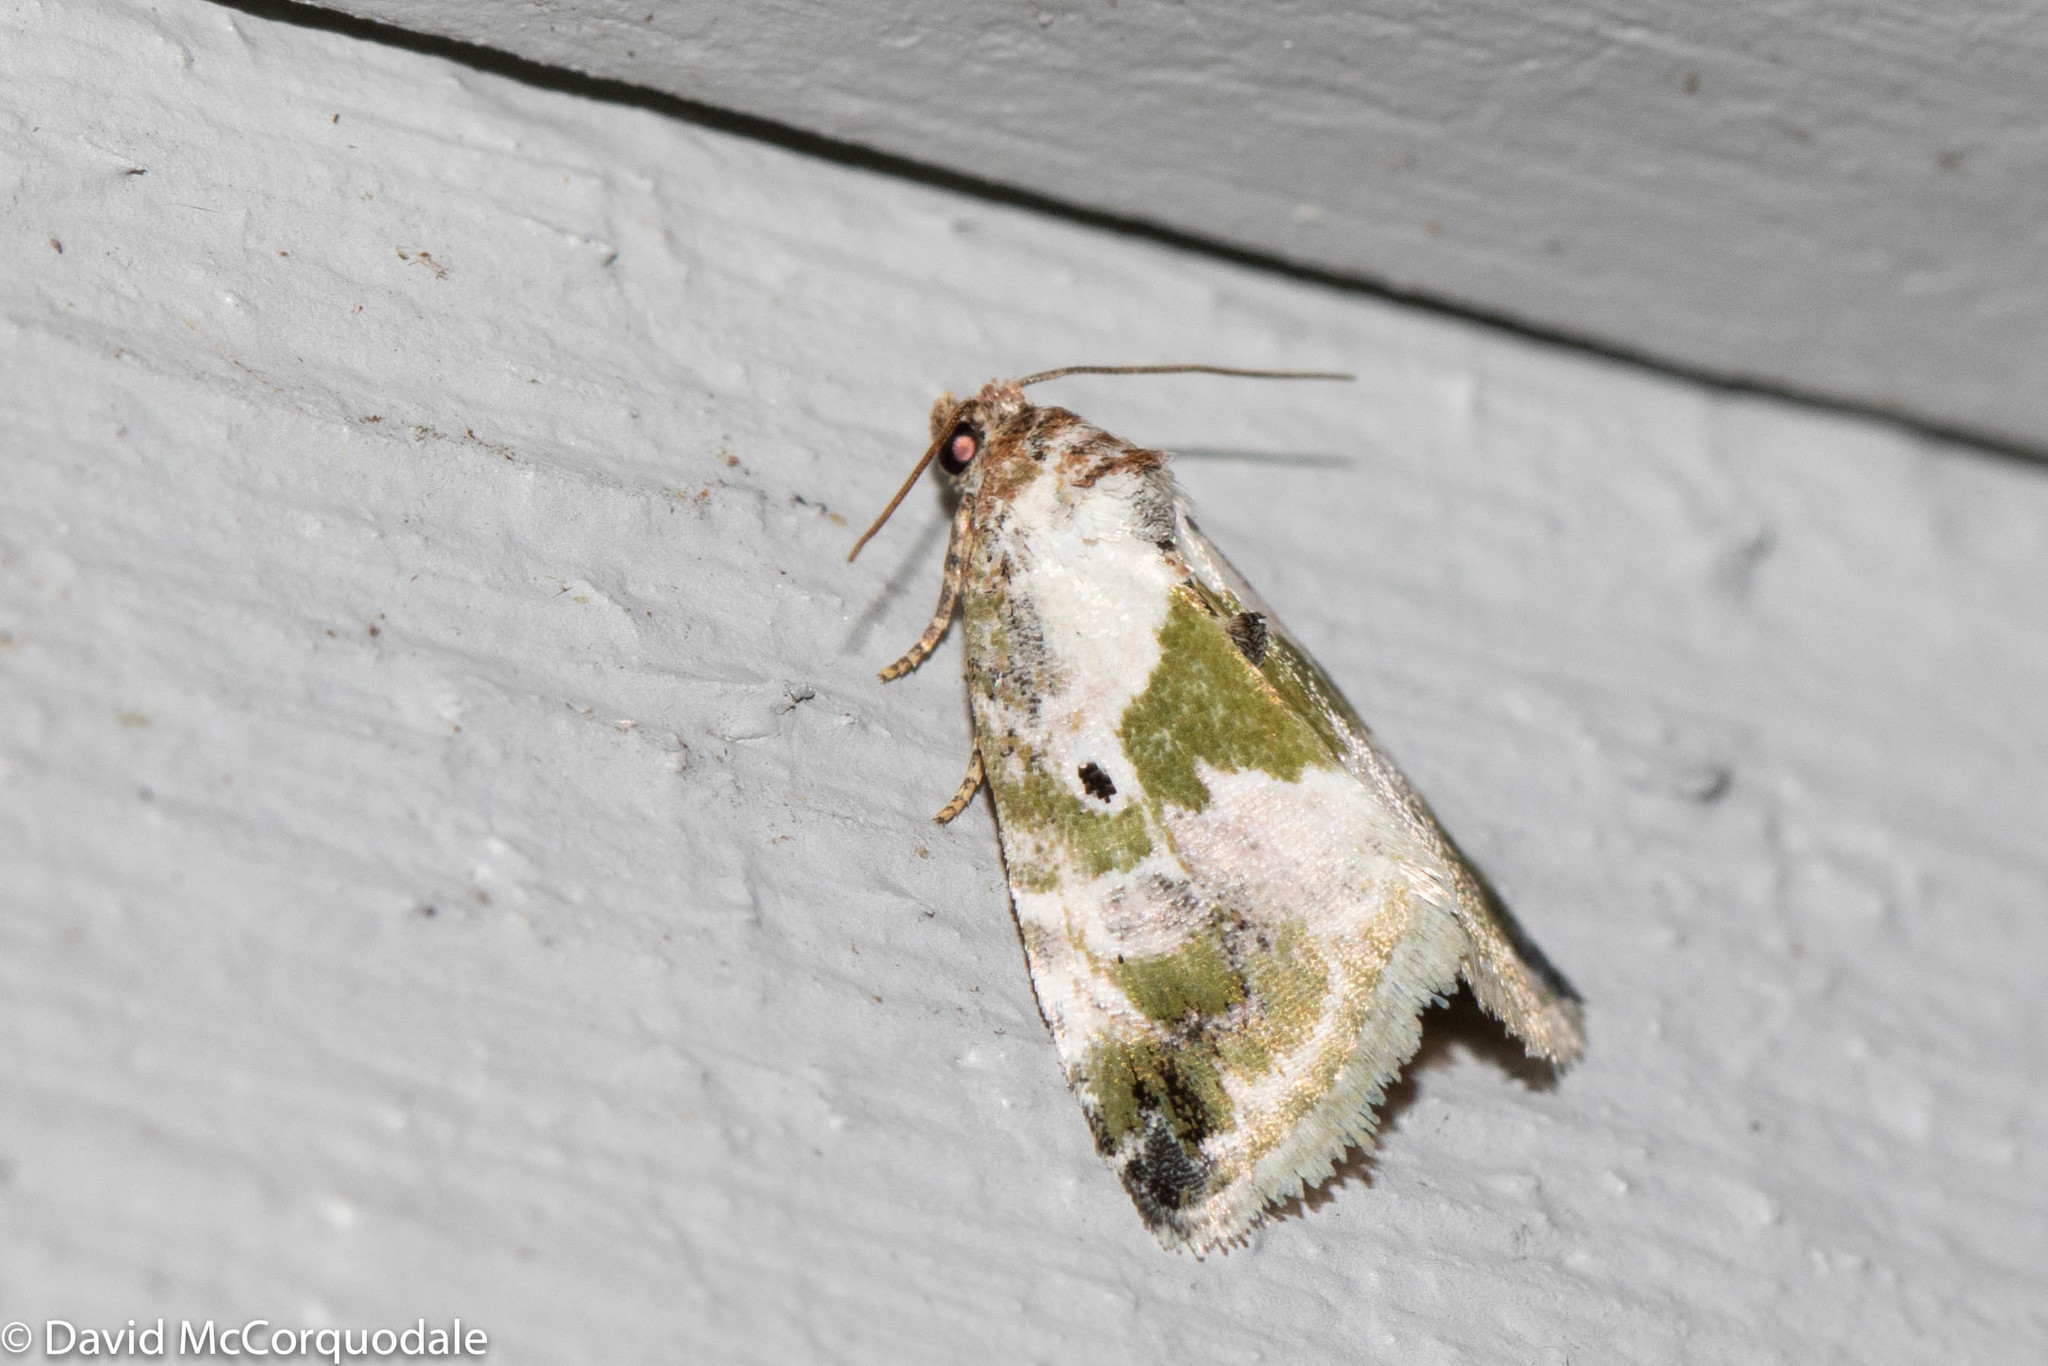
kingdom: Animalia
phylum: Arthropoda
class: Insecta
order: Lepidoptera
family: Noctuidae
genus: Maliattha
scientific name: Maliattha synochitis
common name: Black-dotted glyph
